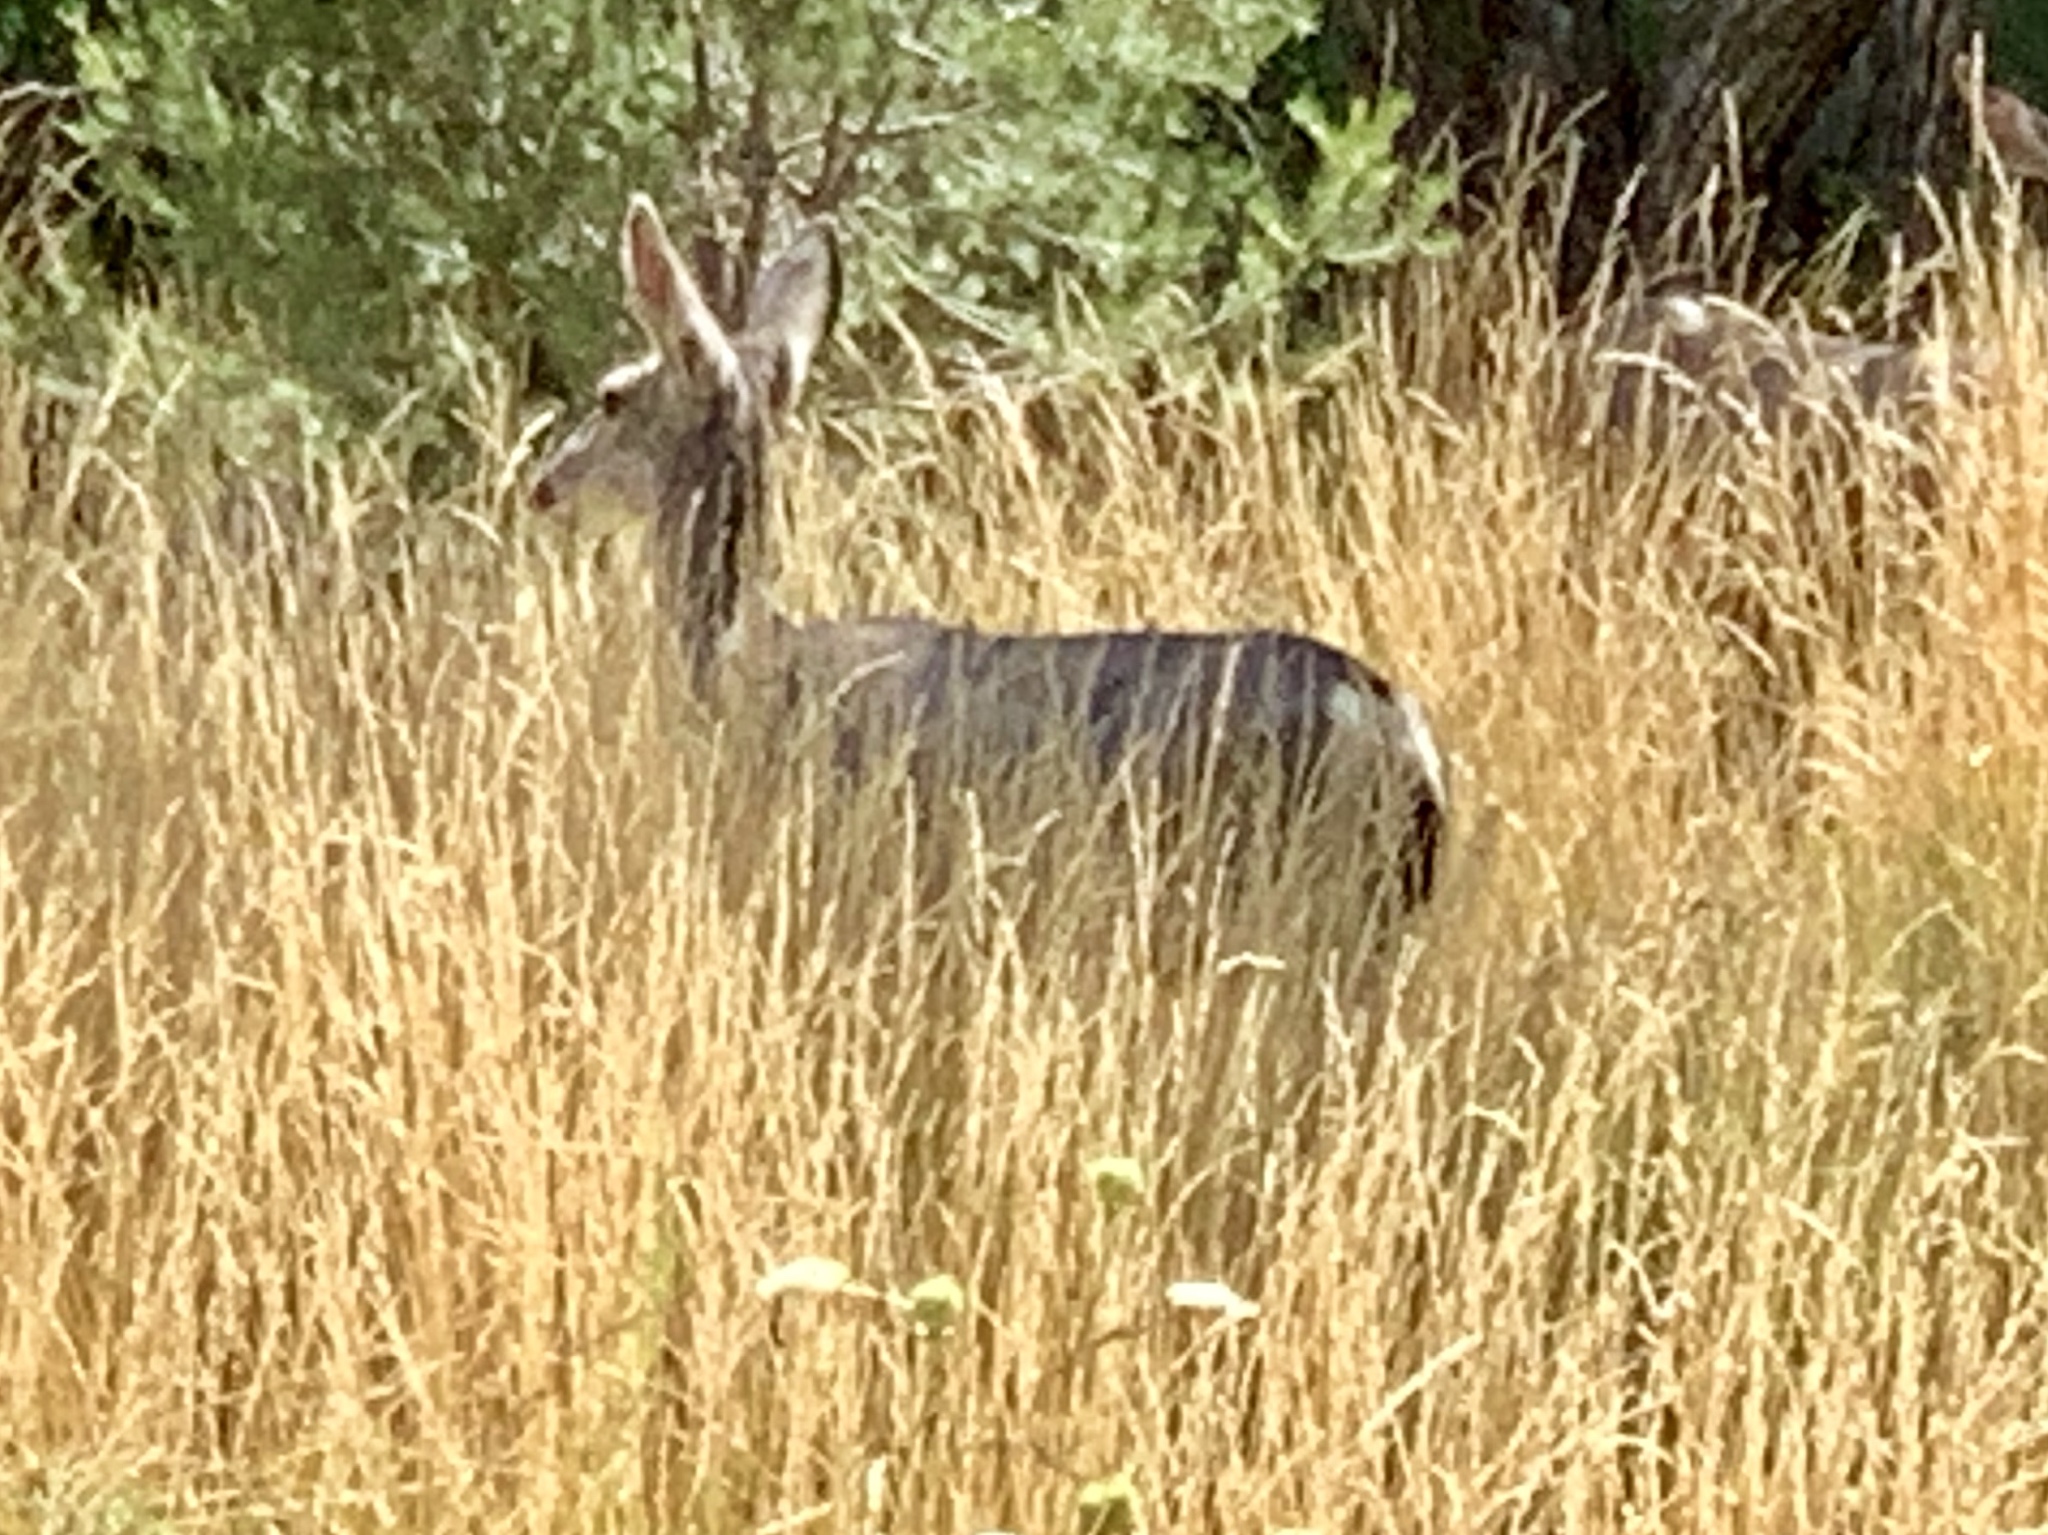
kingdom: Animalia
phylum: Chordata
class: Mammalia
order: Artiodactyla
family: Cervidae
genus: Odocoileus
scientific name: Odocoileus hemionus
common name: Mule deer
